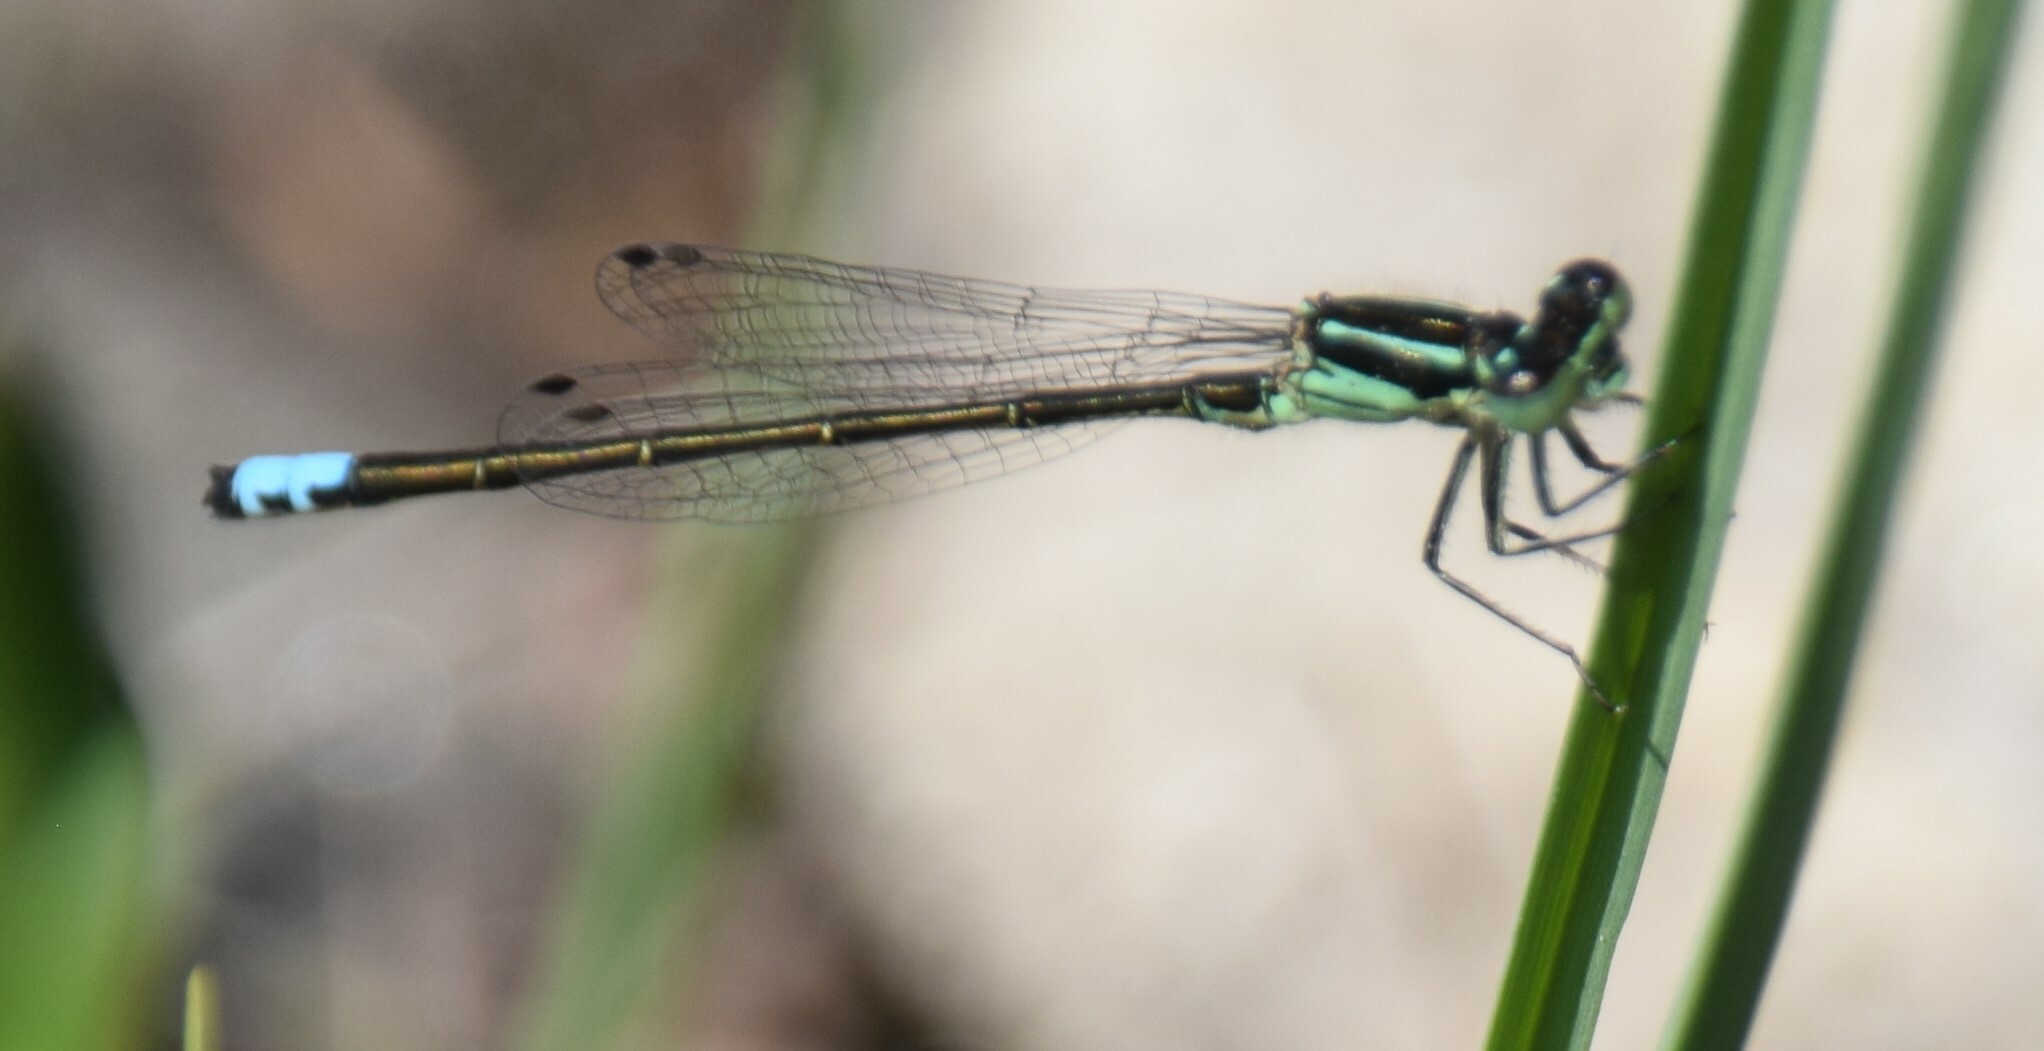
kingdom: Animalia
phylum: Arthropoda
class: Insecta
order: Odonata
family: Coenagrionidae
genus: Ischnura
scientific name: Ischnura verticalis
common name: Eastern forktail
